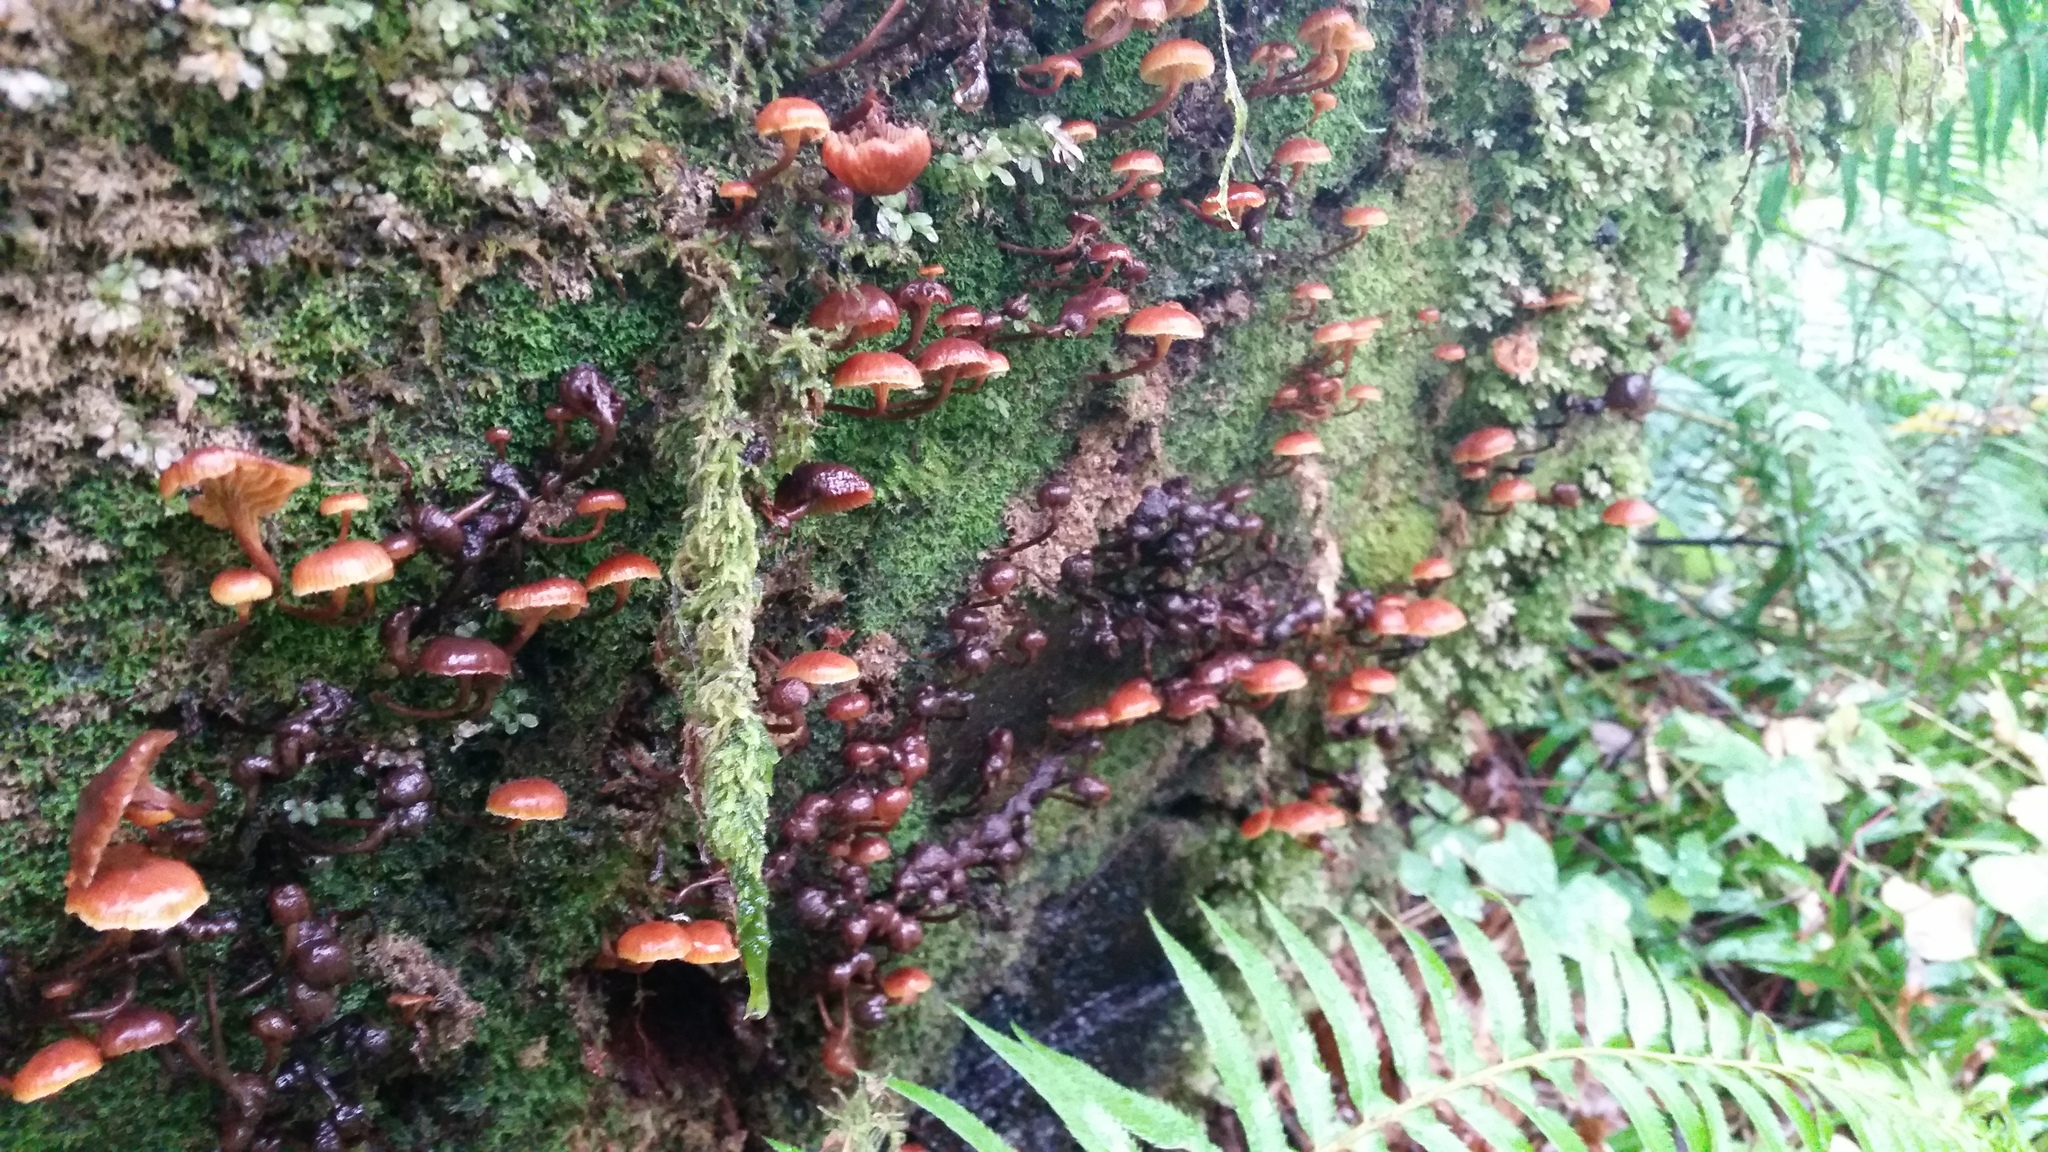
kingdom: Fungi
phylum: Basidiomycota
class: Agaricomycetes
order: Agaricales
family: Mycenaceae
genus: Xeromphalina
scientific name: Xeromphalina campanella
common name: Pinewood gingertail
